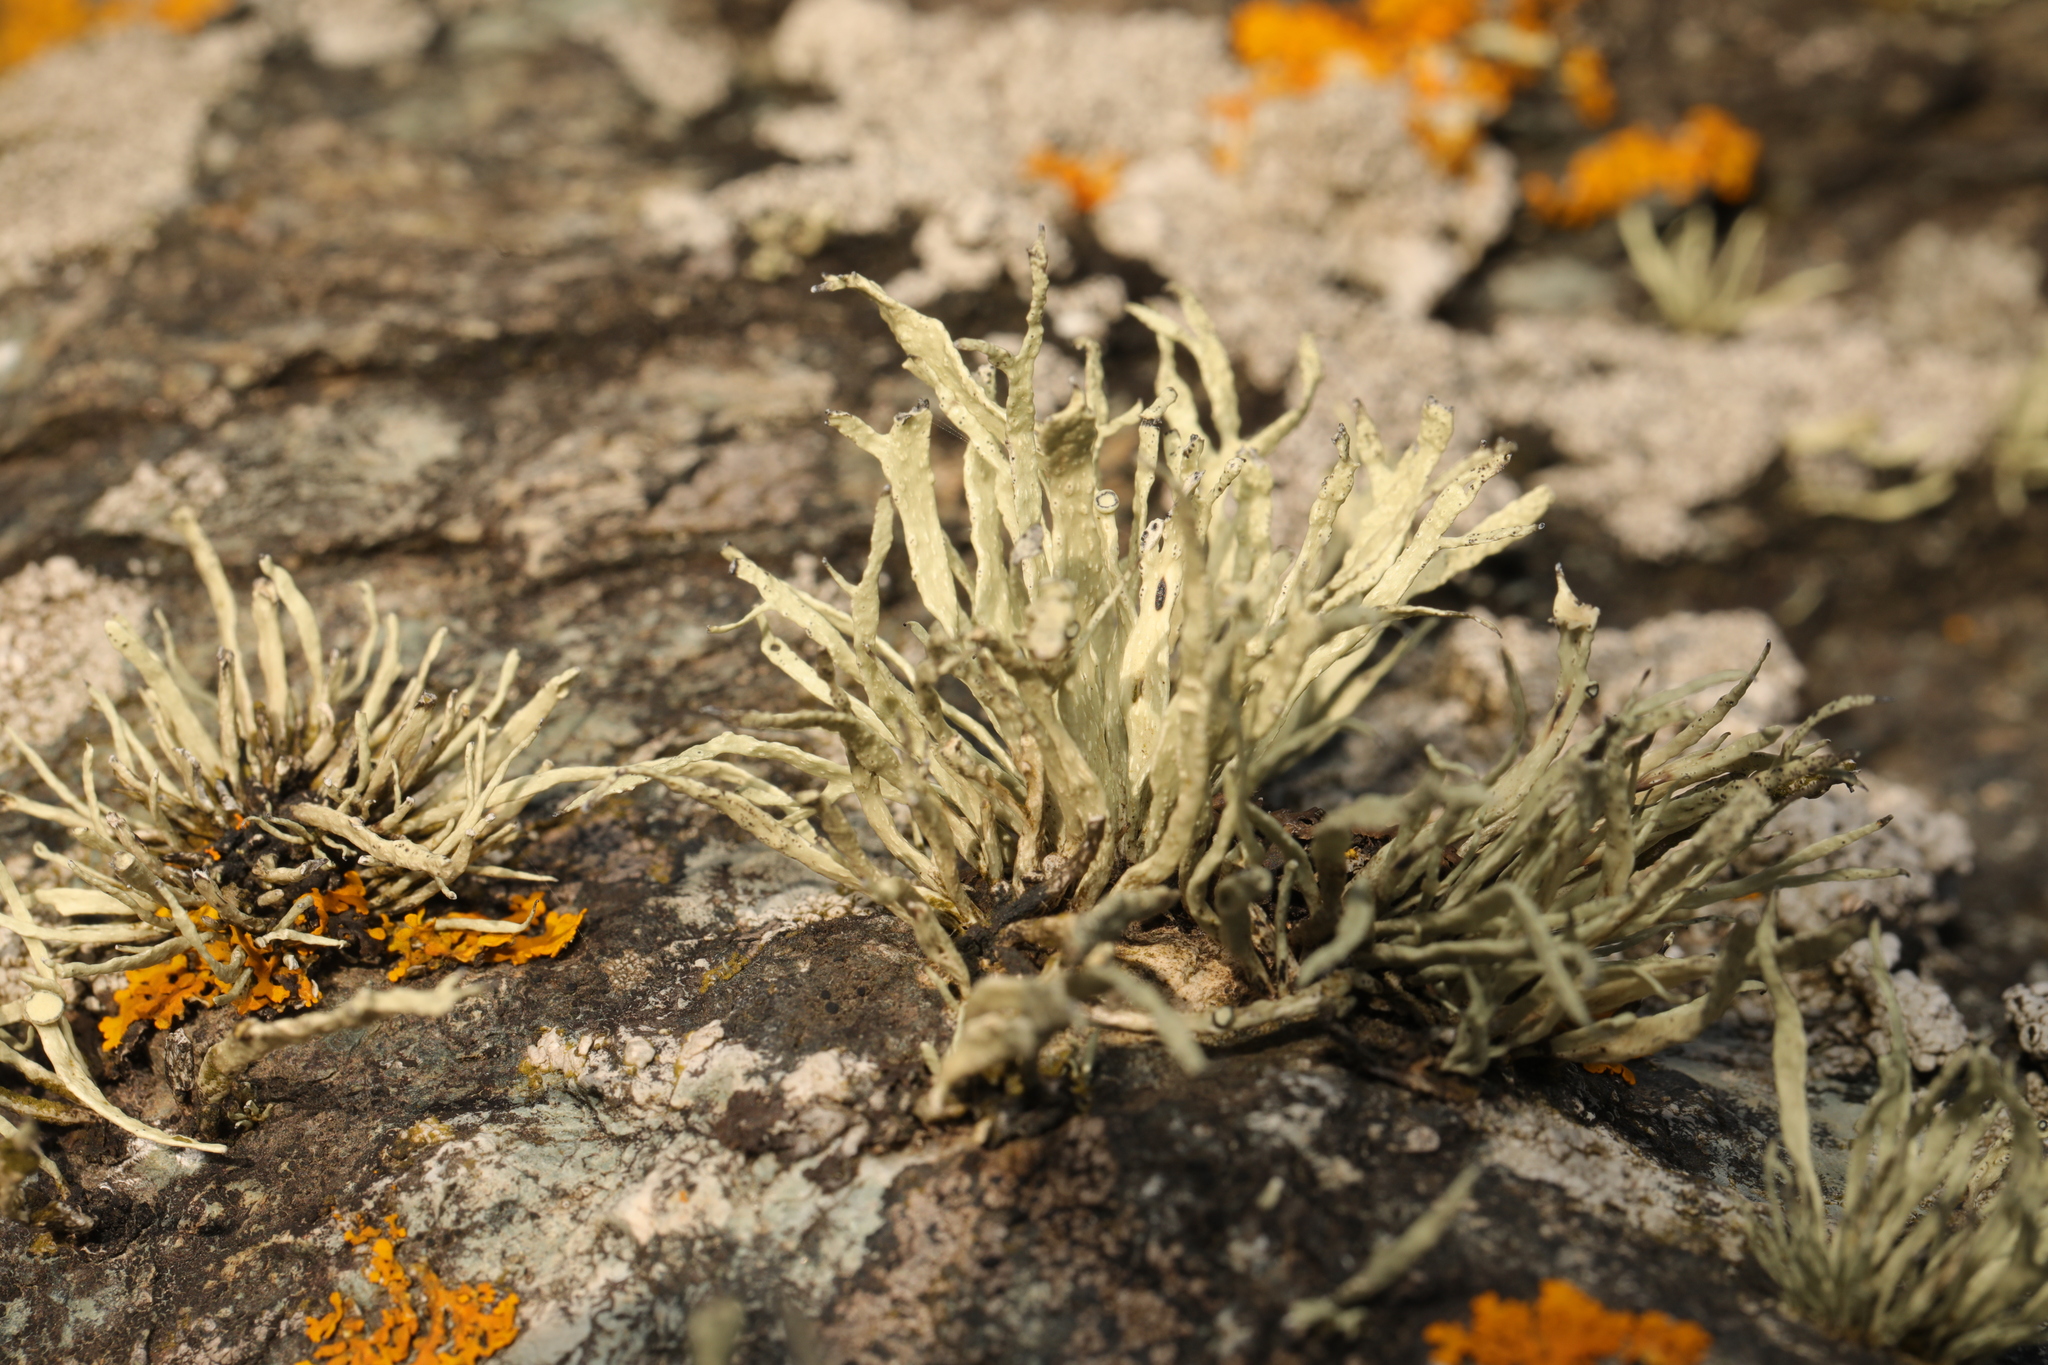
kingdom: Fungi
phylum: Ascomycota
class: Lecanoromycetes
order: Lecanorales
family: Ramalinaceae
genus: Ramalina
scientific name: Ramalina siliquosa
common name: Sea ivory
